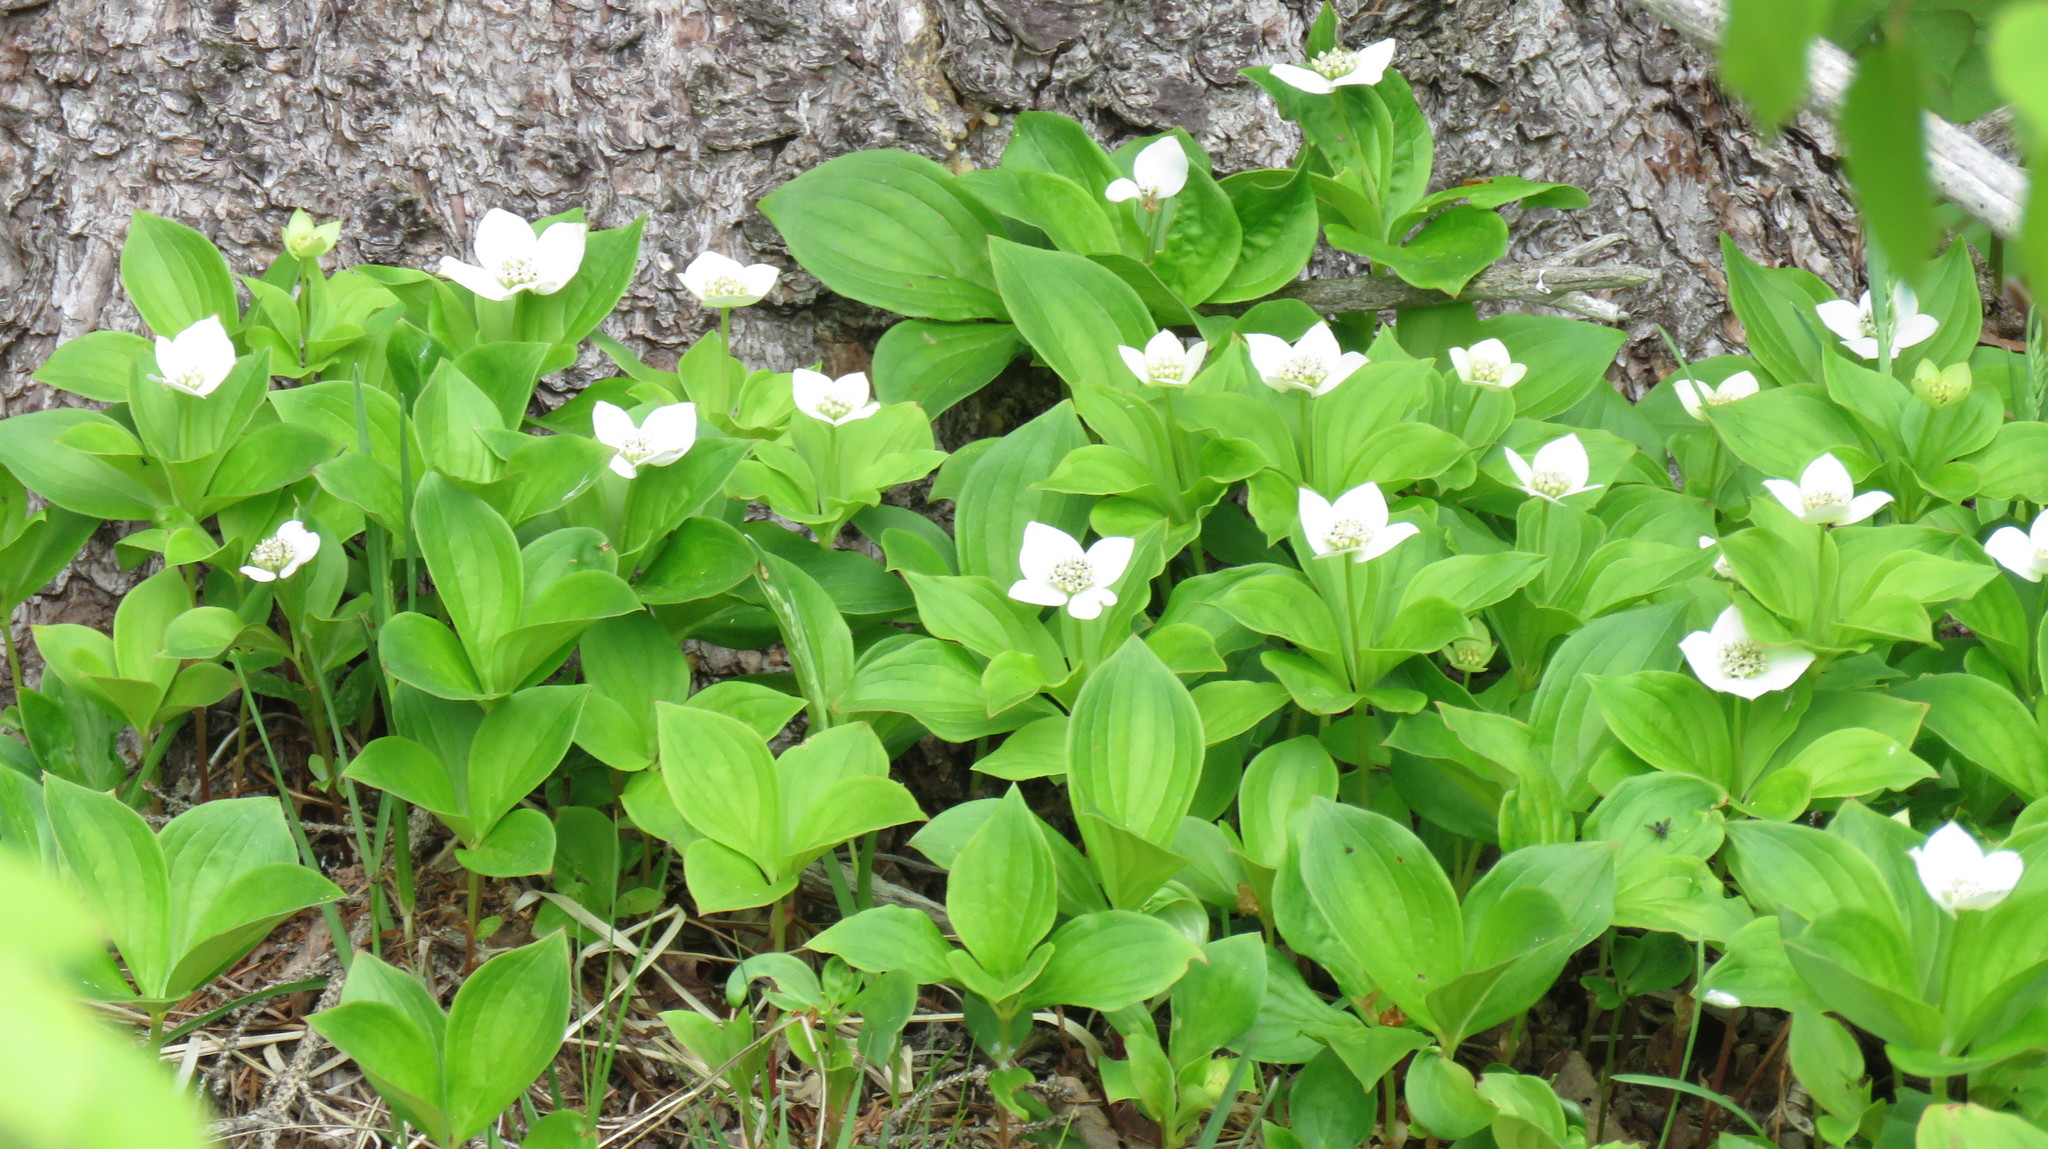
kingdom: Plantae
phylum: Tracheophyta
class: Magnoliopsida
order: Cornales
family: Cornaceae
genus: Cornus
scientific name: Cornus canadensis
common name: Creeping dogwood
